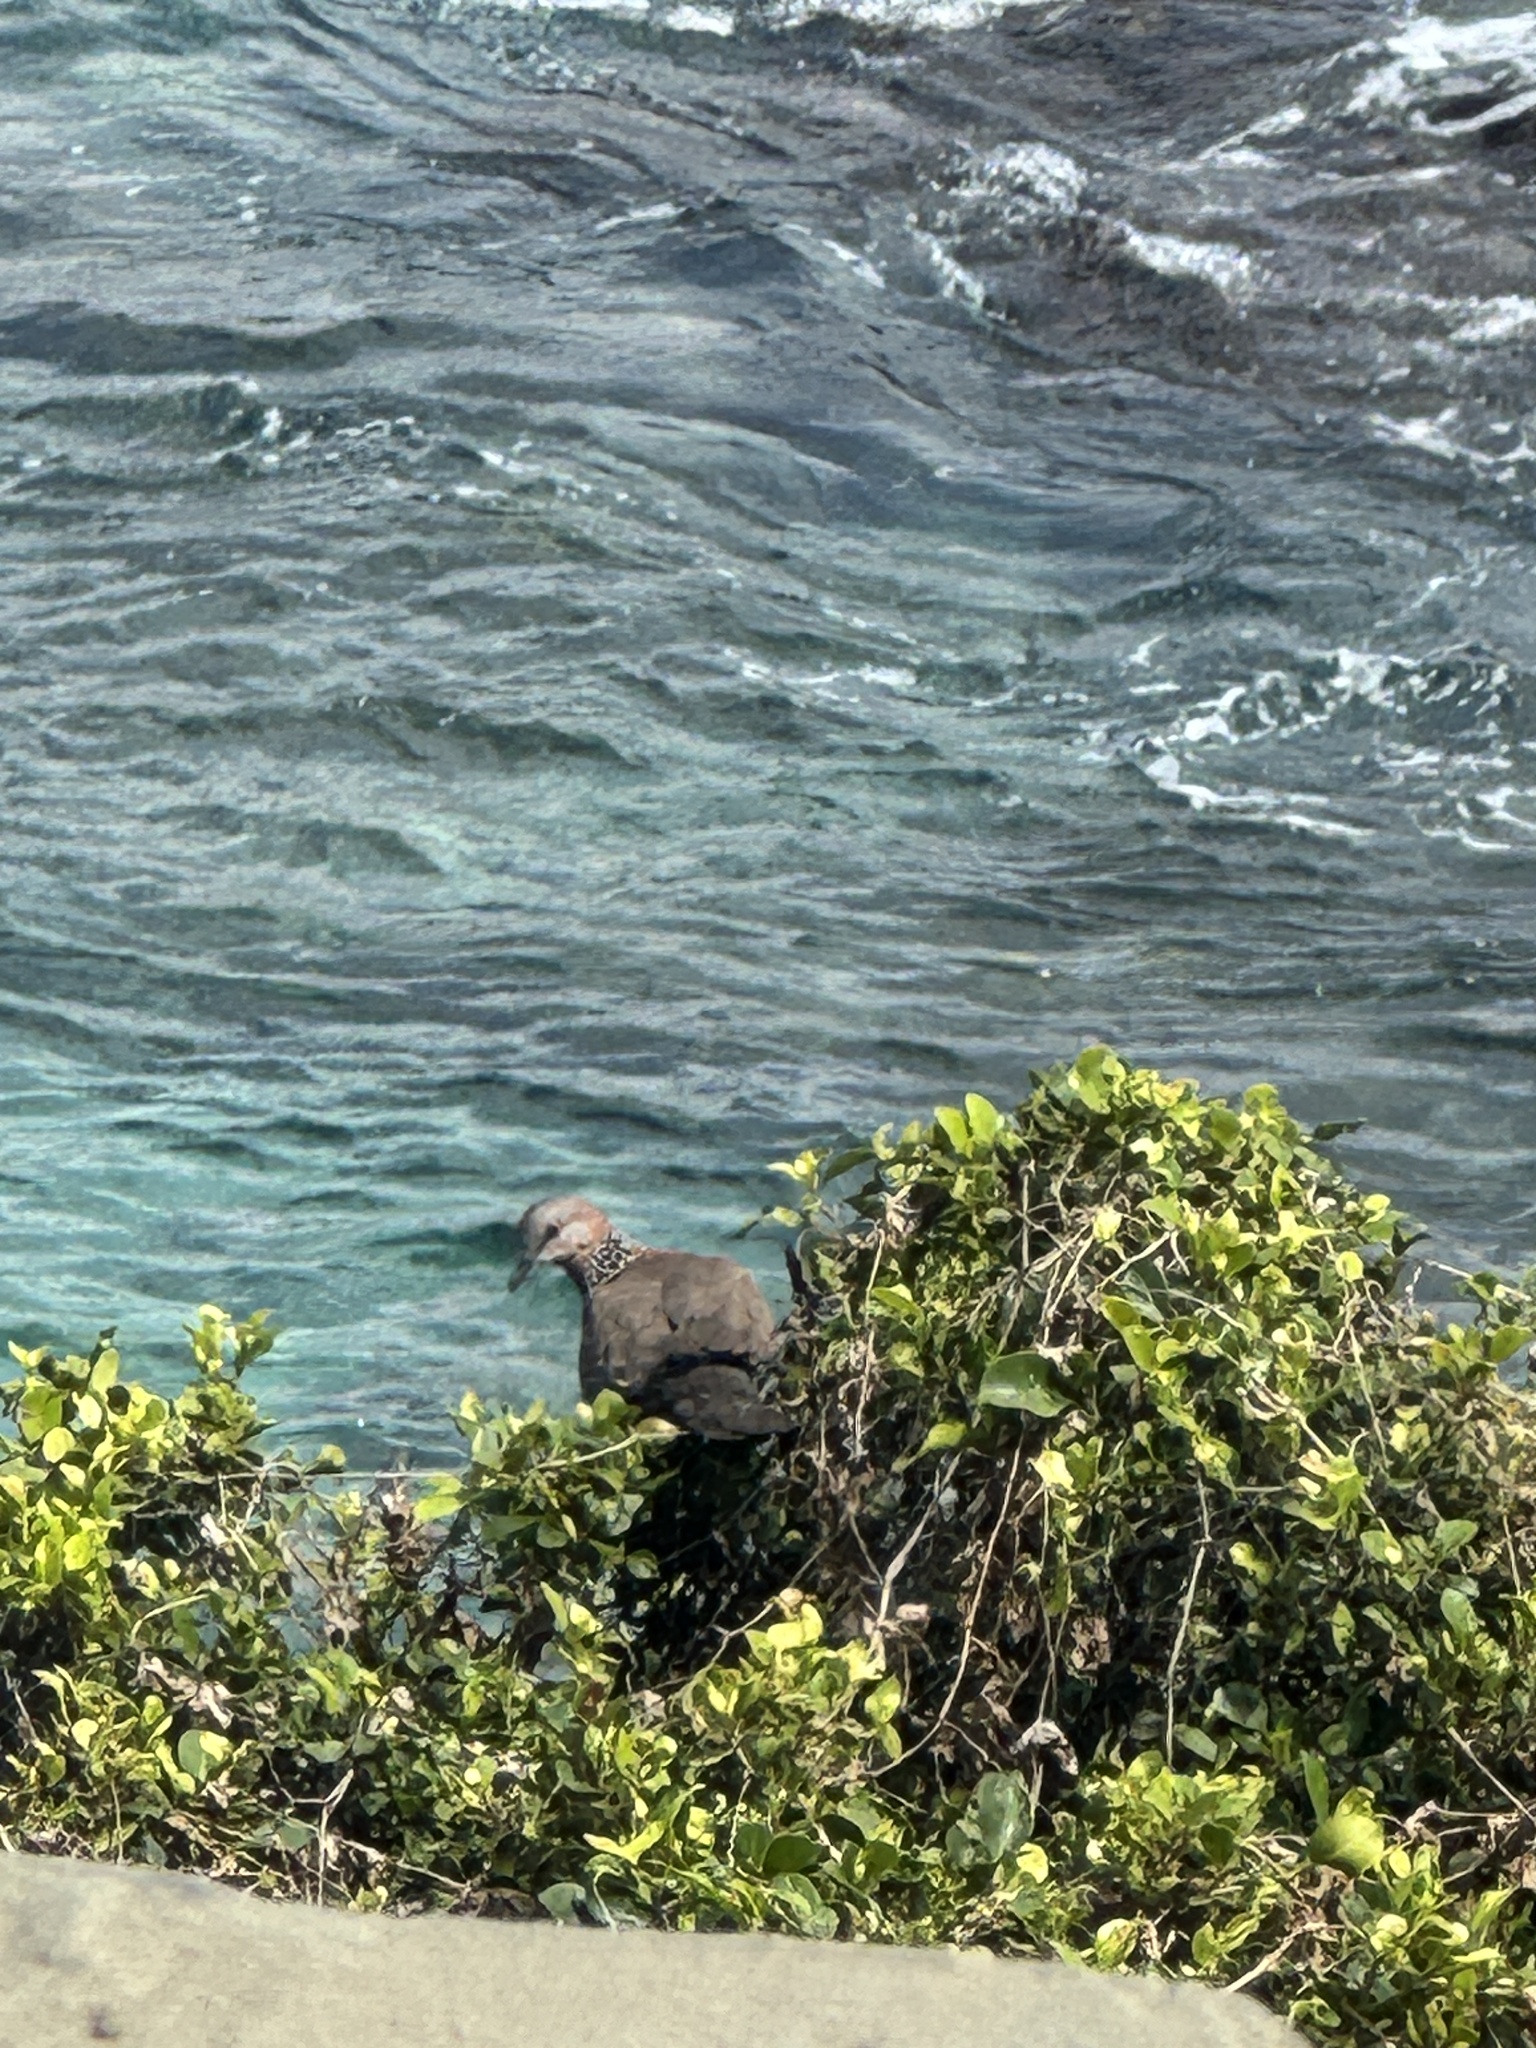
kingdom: Animalia
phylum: Chordata
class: Aves
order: Columbiformes
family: Columbidae
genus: Spilopelia
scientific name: Spilopelia chinensis
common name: Spotted dove
